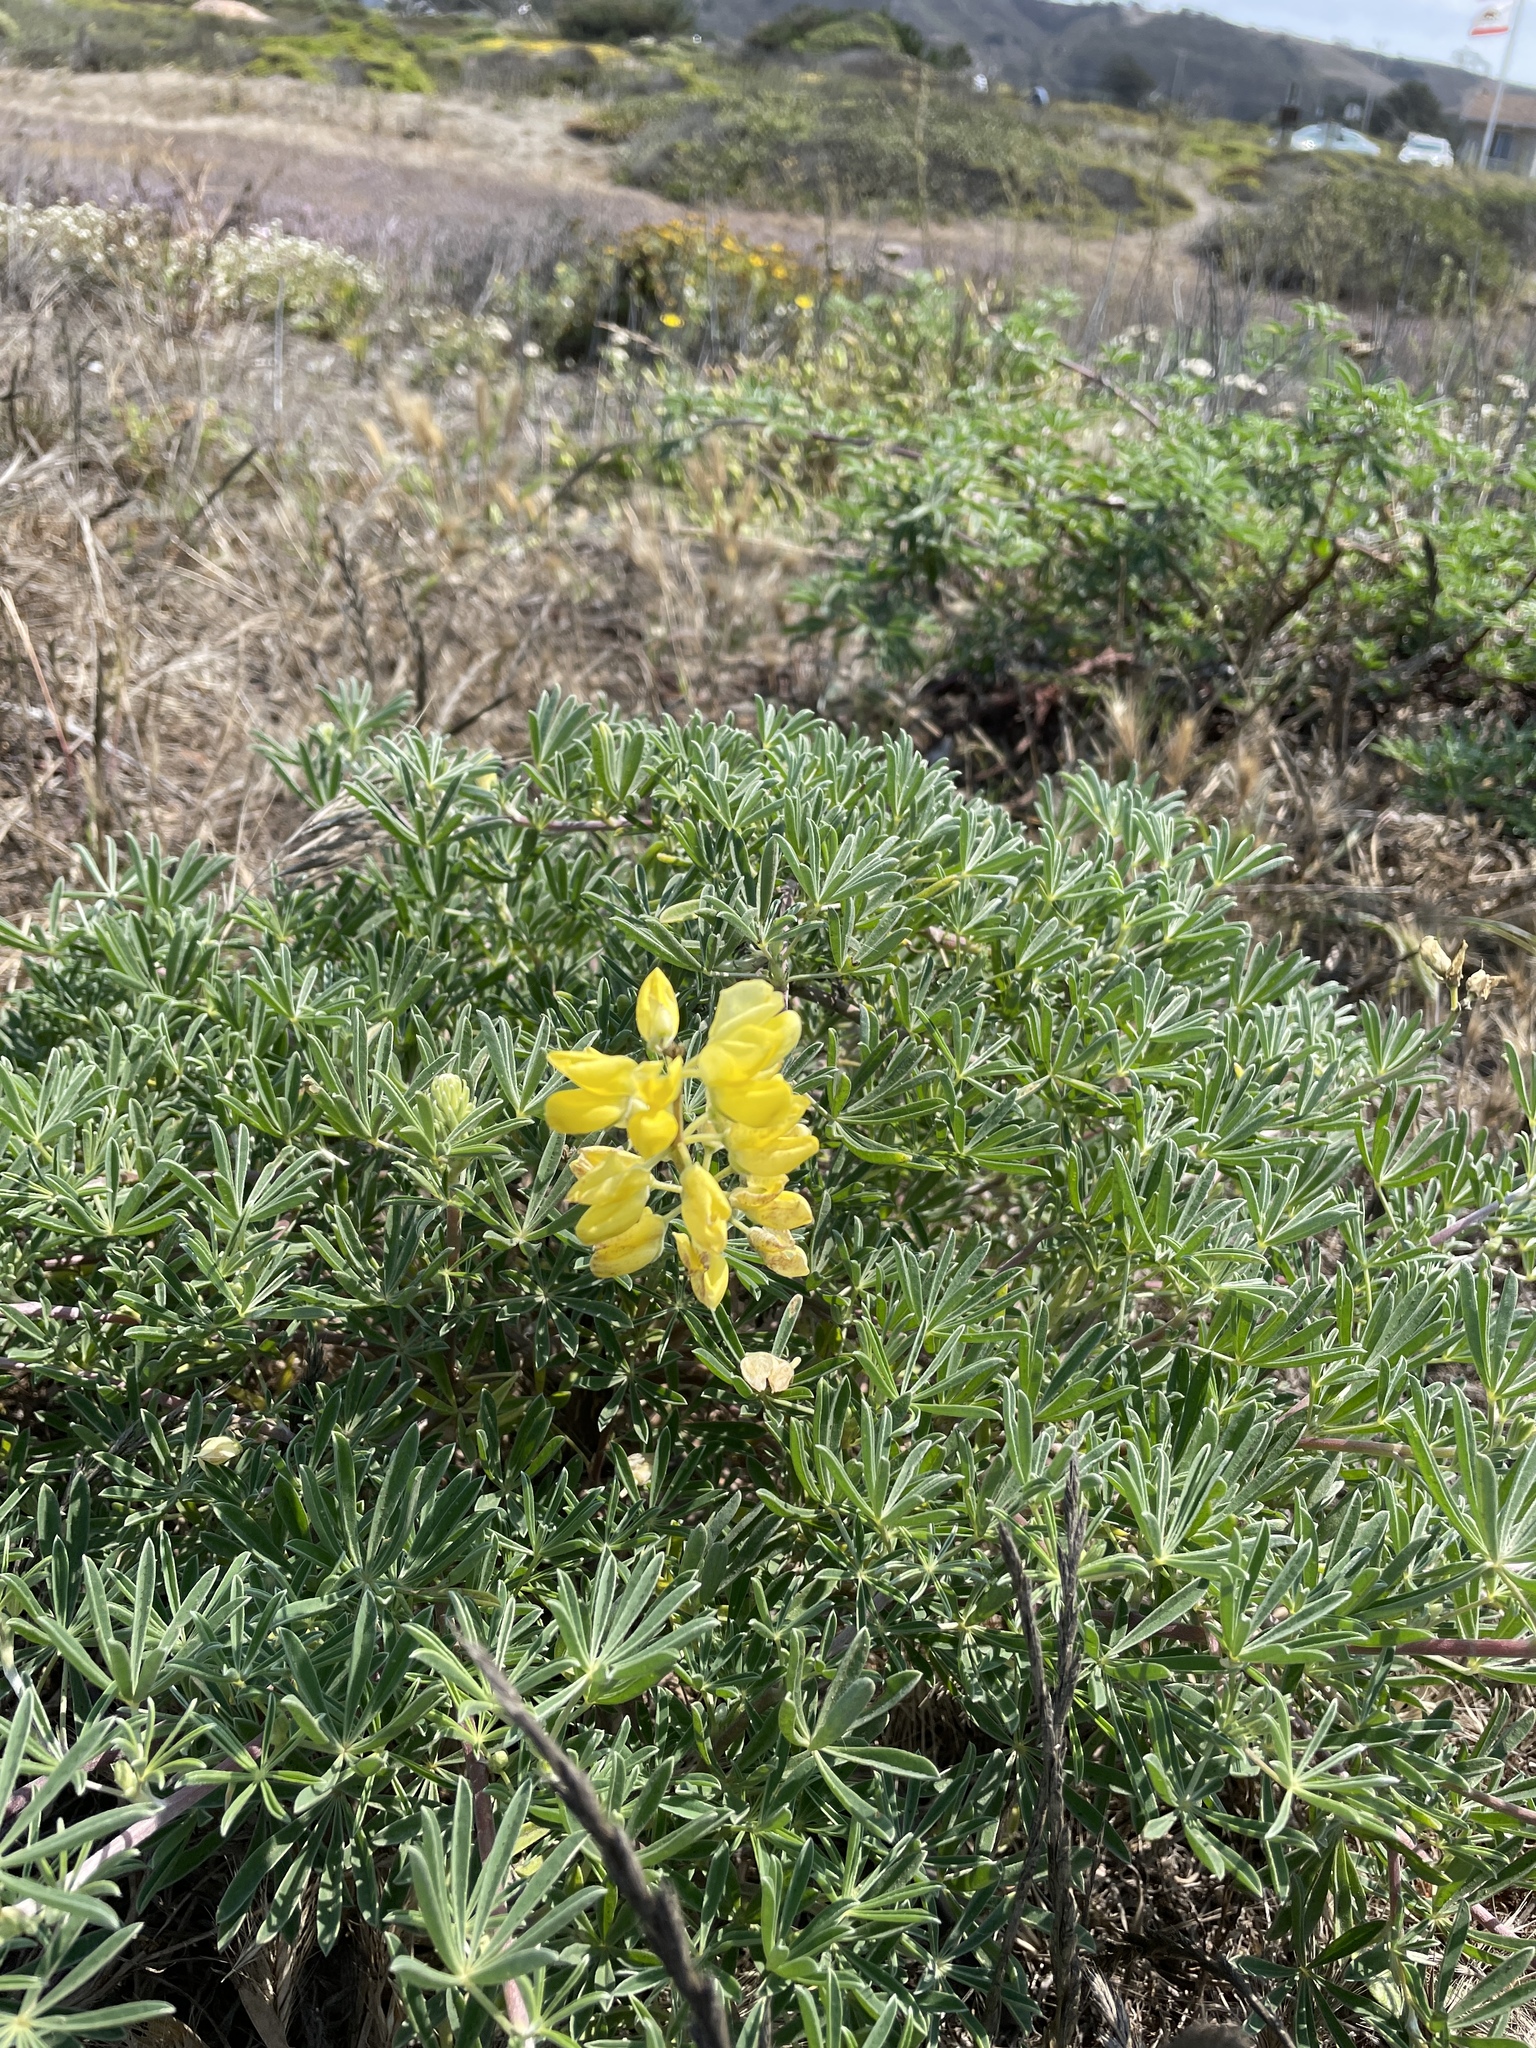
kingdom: Plantae
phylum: Tracheophyta
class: Magnoliopsida
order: Fabales
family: Fabaceae
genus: Lupinus
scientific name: Lupinus arboreus
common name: Yellow bush lupine
